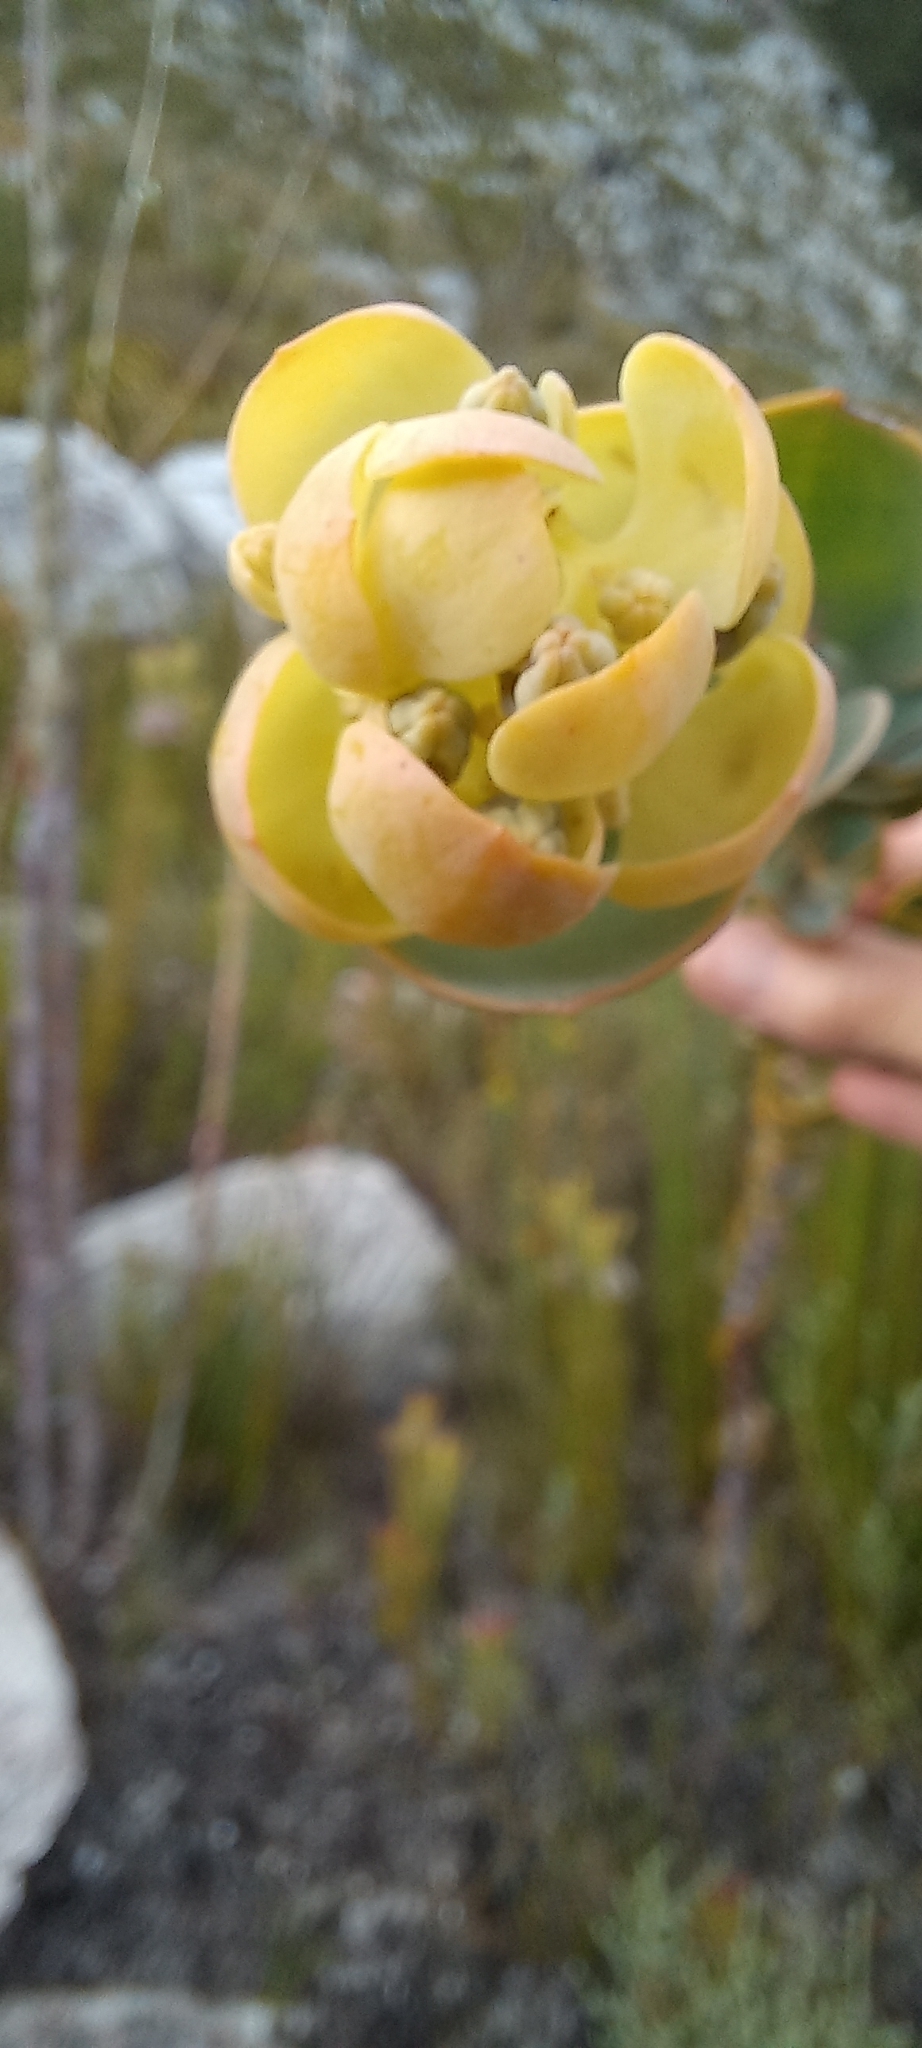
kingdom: Plantae
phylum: Tracheophyta
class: Magnoliopsida
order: Santalales
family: Thesiaceae
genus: Thesium
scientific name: Thesium euphorbioides
